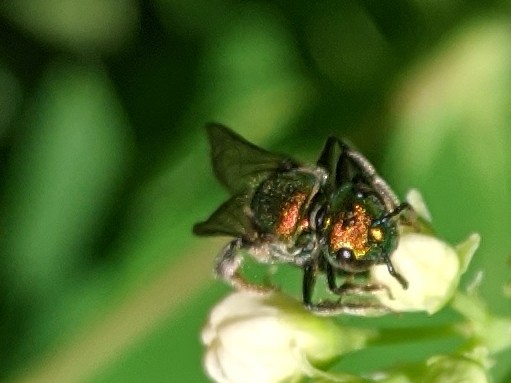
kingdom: Animalia
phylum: Arthropoda
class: Insecta
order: Hymenoptera
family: Halictidae
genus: Augochlora
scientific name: Augochlora pura
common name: Pure green sweat bee
